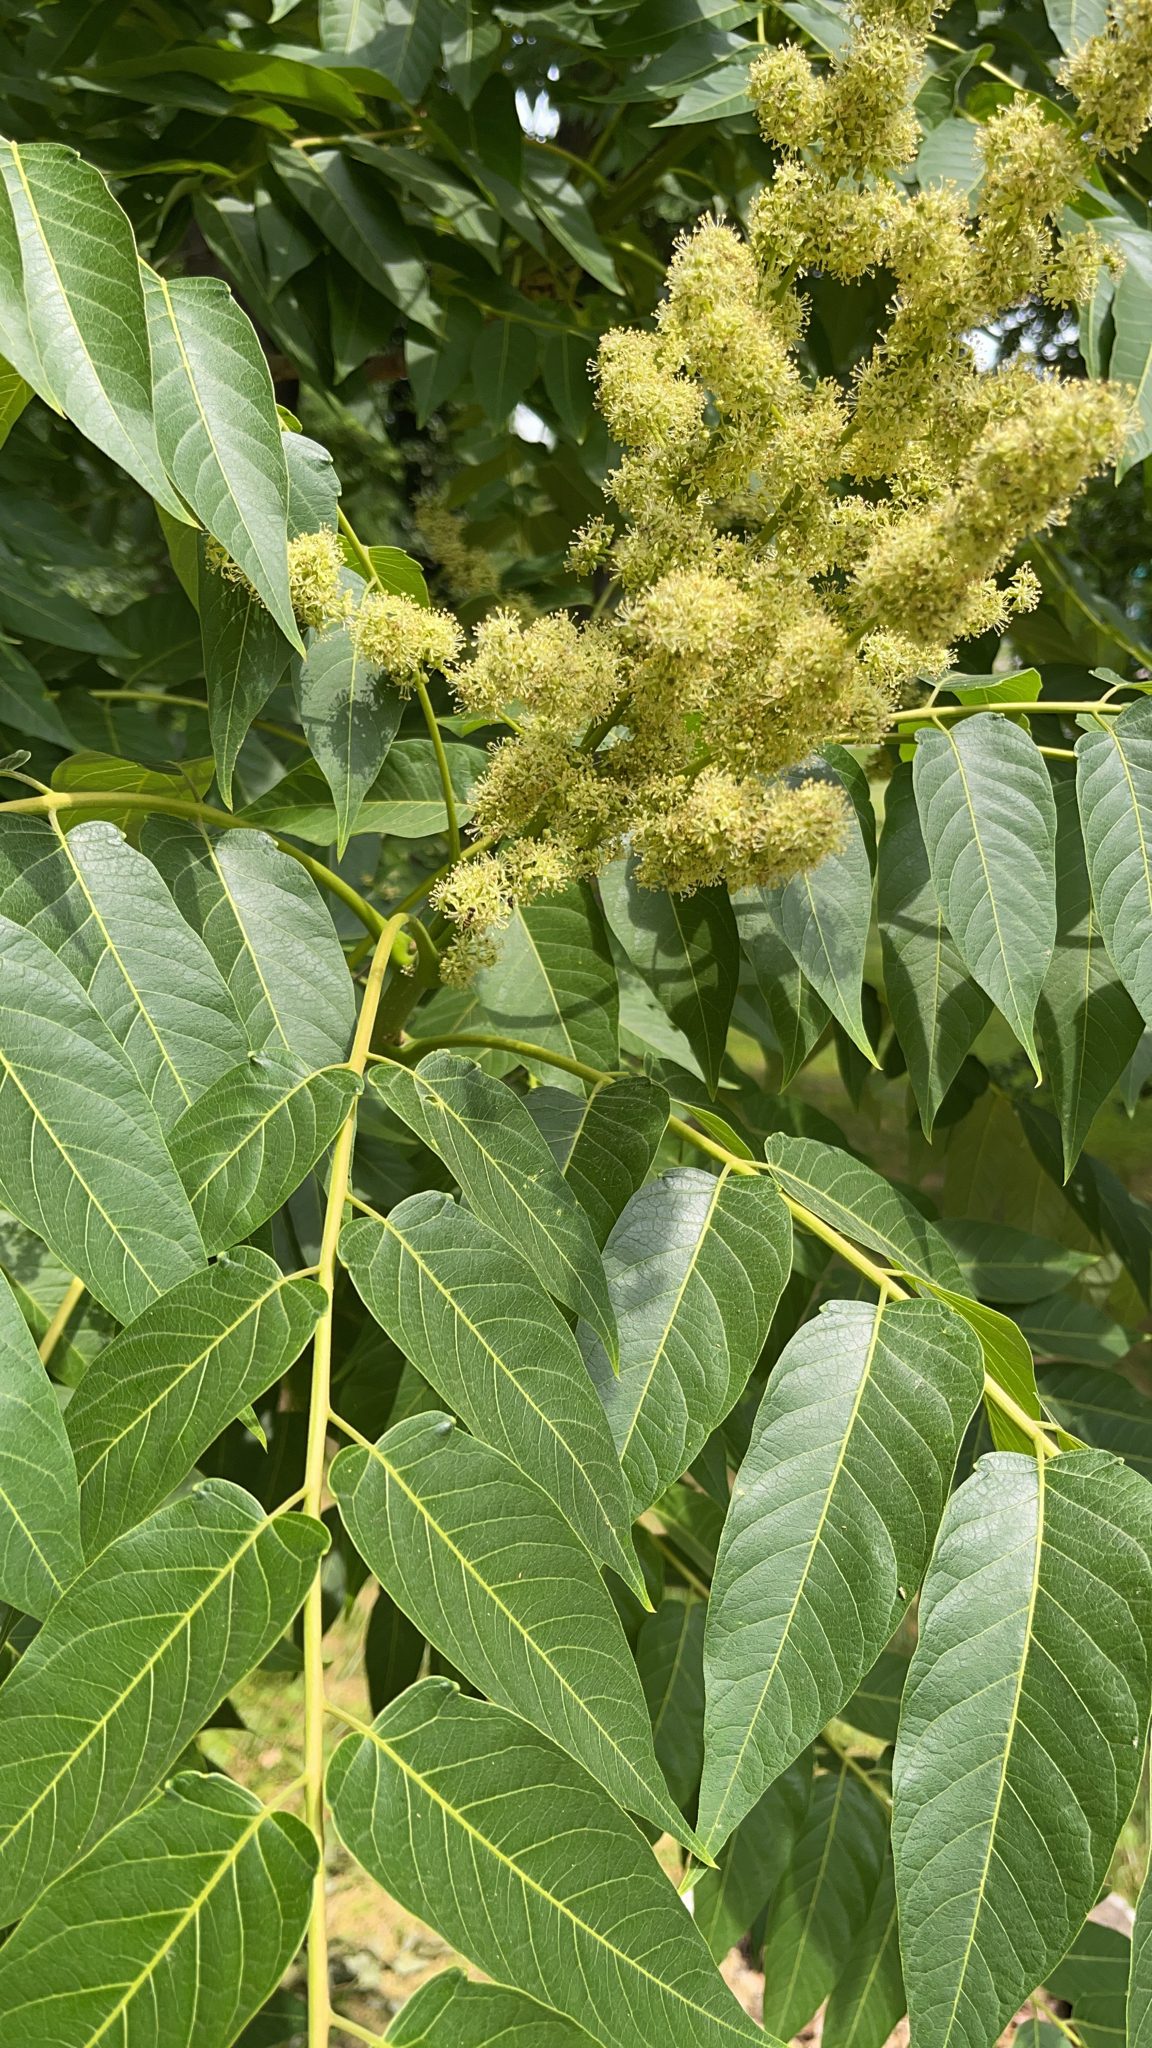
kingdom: Plantae
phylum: Tracheophyta
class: Magnoliopsida
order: Sapindales
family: Simaroubaceae
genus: Ailanthus
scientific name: Ailanthus altissima
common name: Tree-of-heaven
